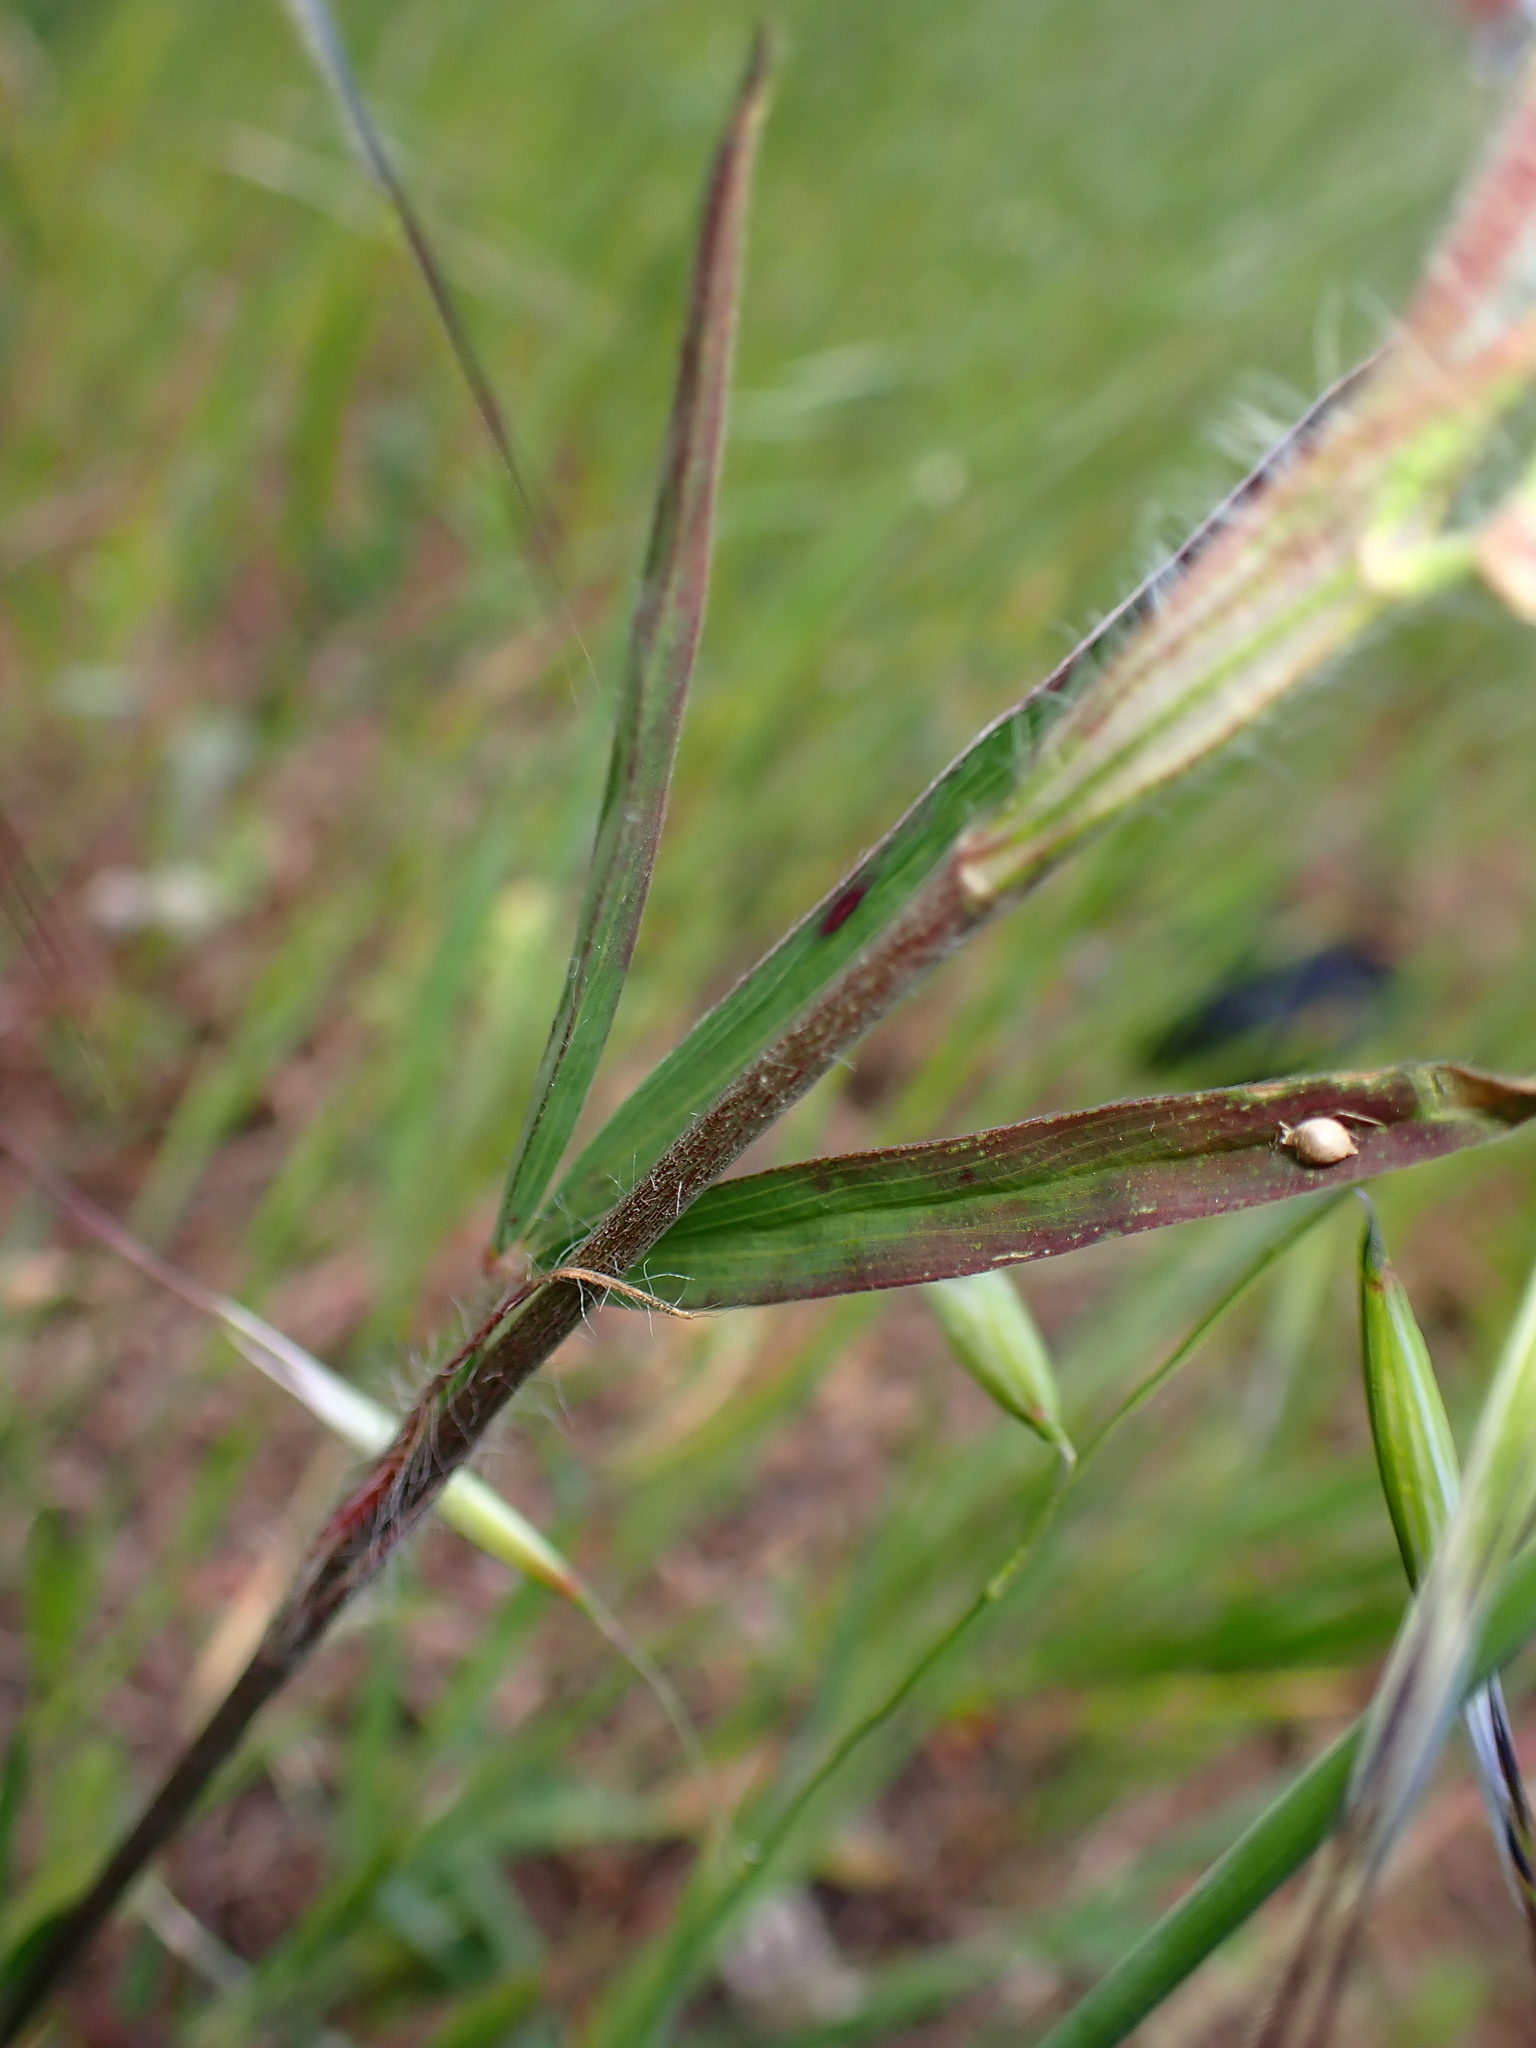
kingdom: Plantae
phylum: Tracheophyta
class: Magnoliopsida
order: Fabales
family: Fabaceae
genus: Trifolium
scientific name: Trifolium angustifolium
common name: Narrow clover
